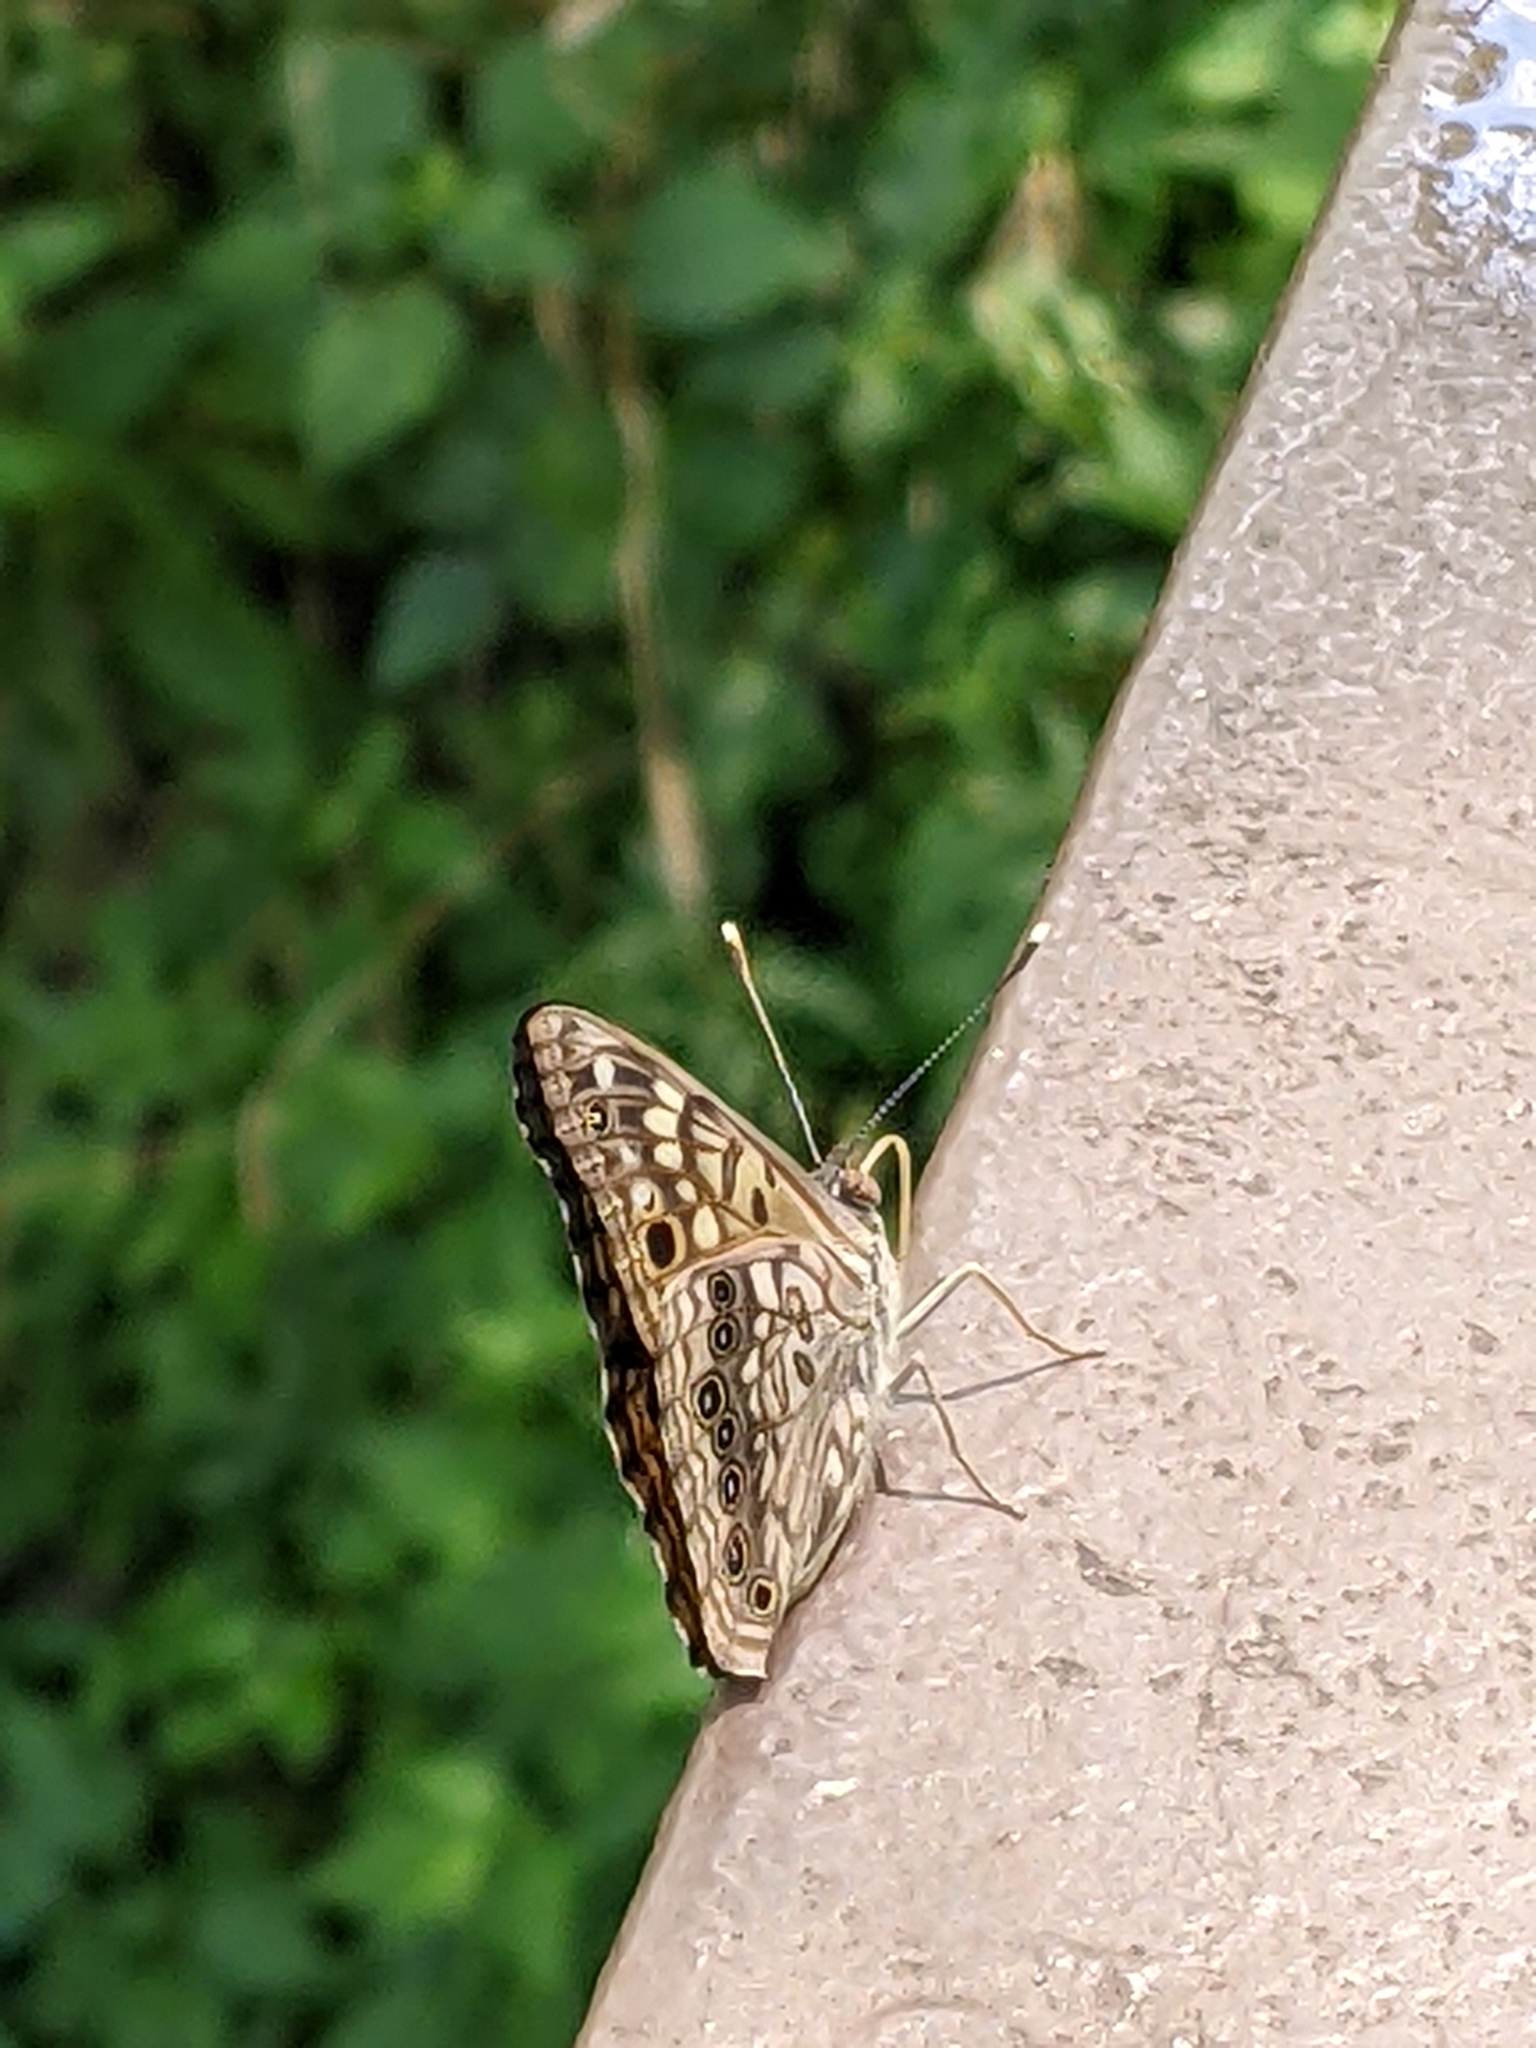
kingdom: Animalia
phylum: Arthropoda
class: Insecta
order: Lepidoptera
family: Nymphalidae
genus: Asterocampa
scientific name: Asterocampa celtis
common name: Hackberry emperor
